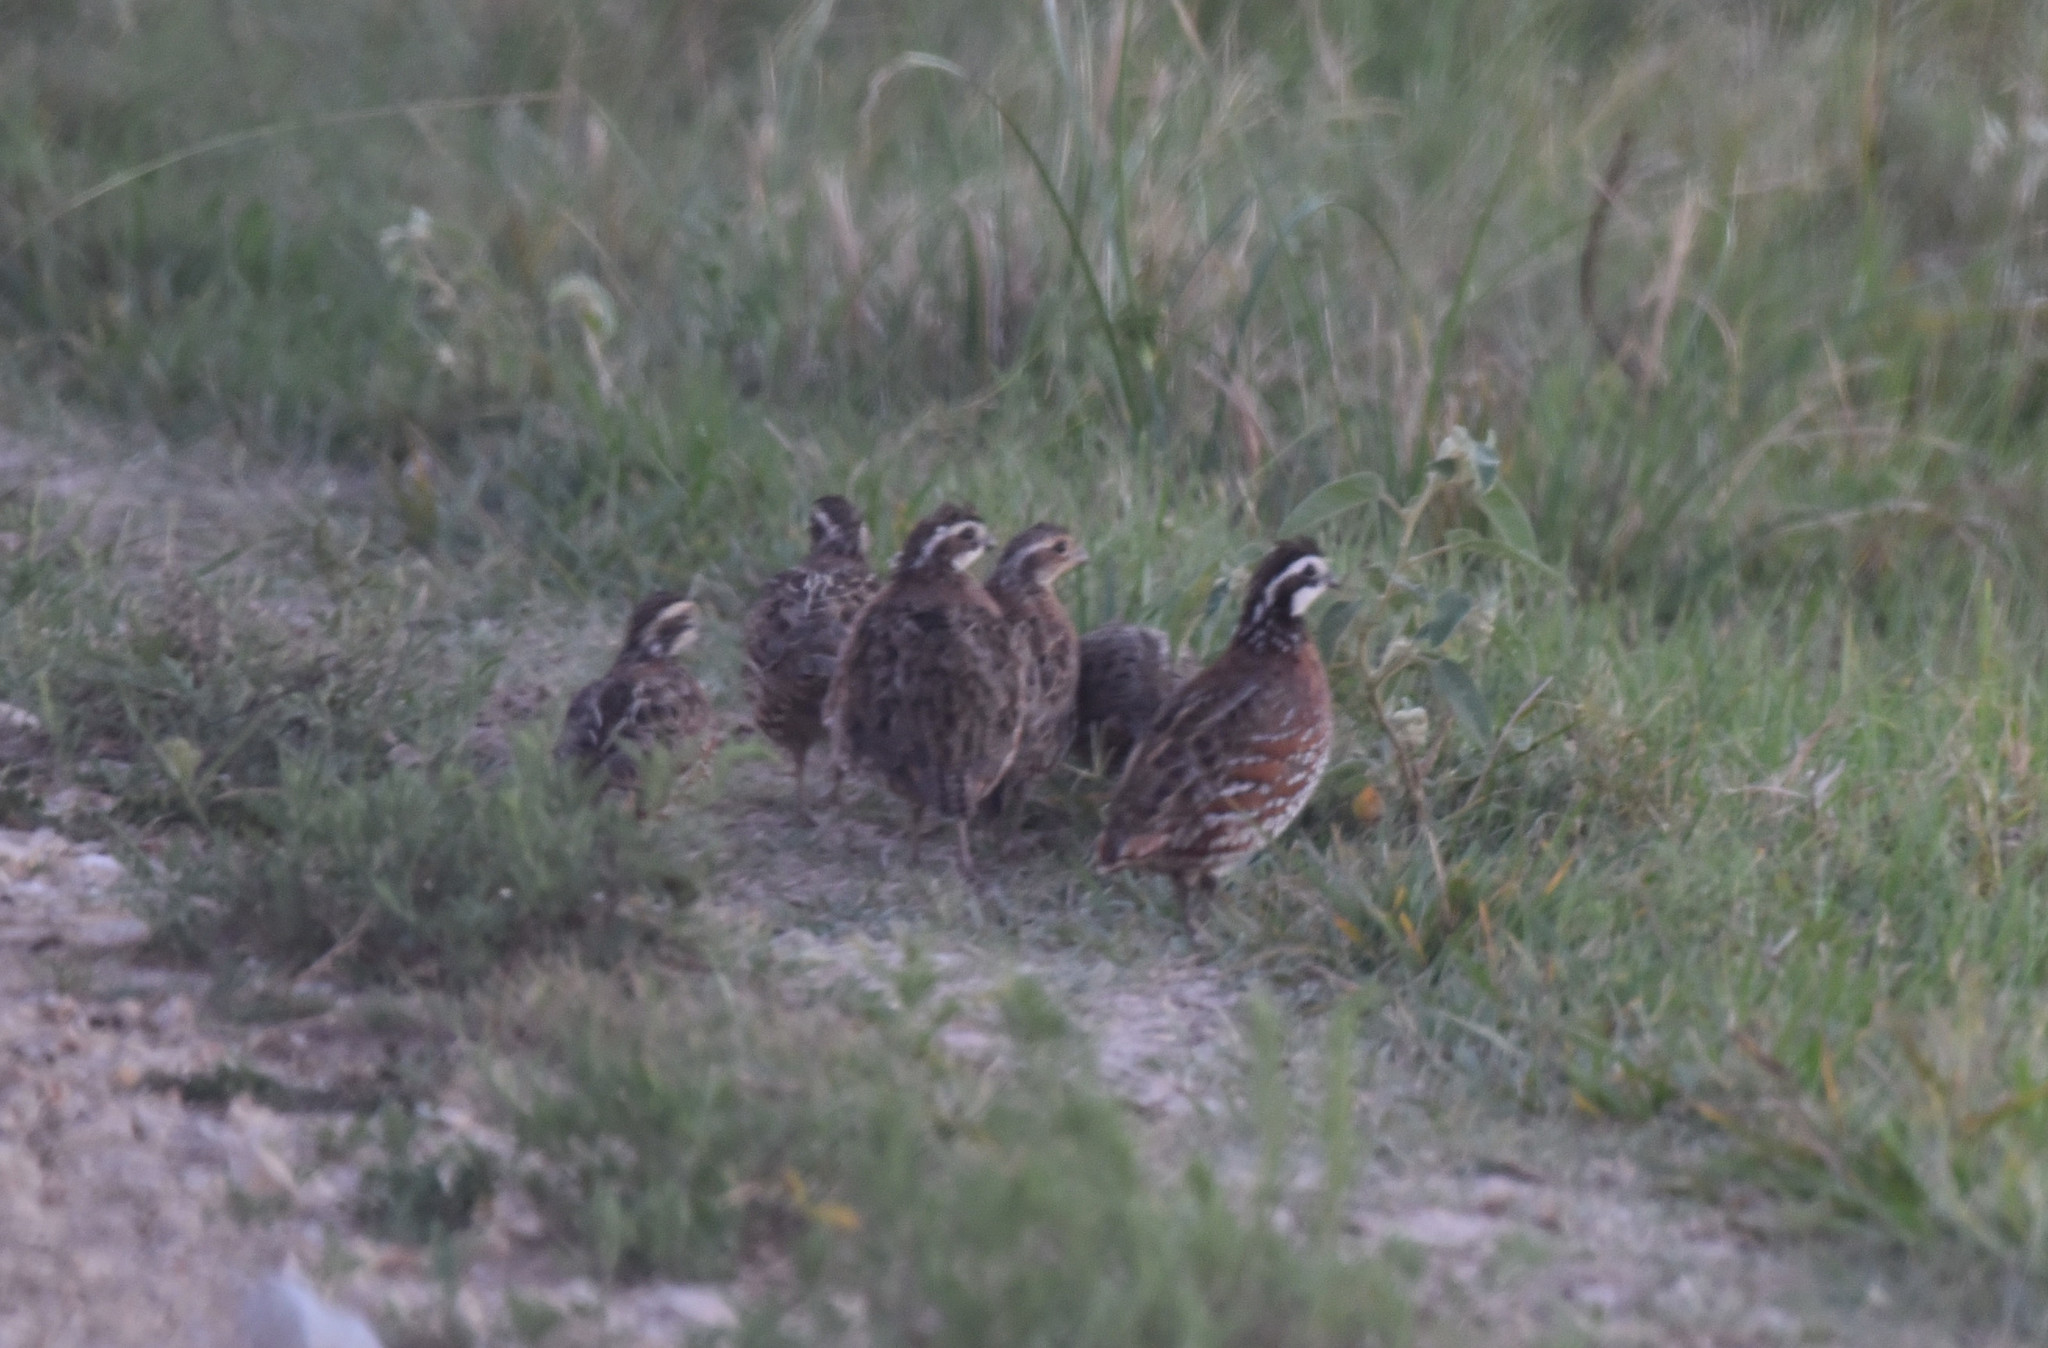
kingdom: Animalia
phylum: Chordata
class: Aves
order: Galliformes
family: Odontophoridae
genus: Colinus
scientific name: Colinus virginianus
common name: Northern bobwhite
